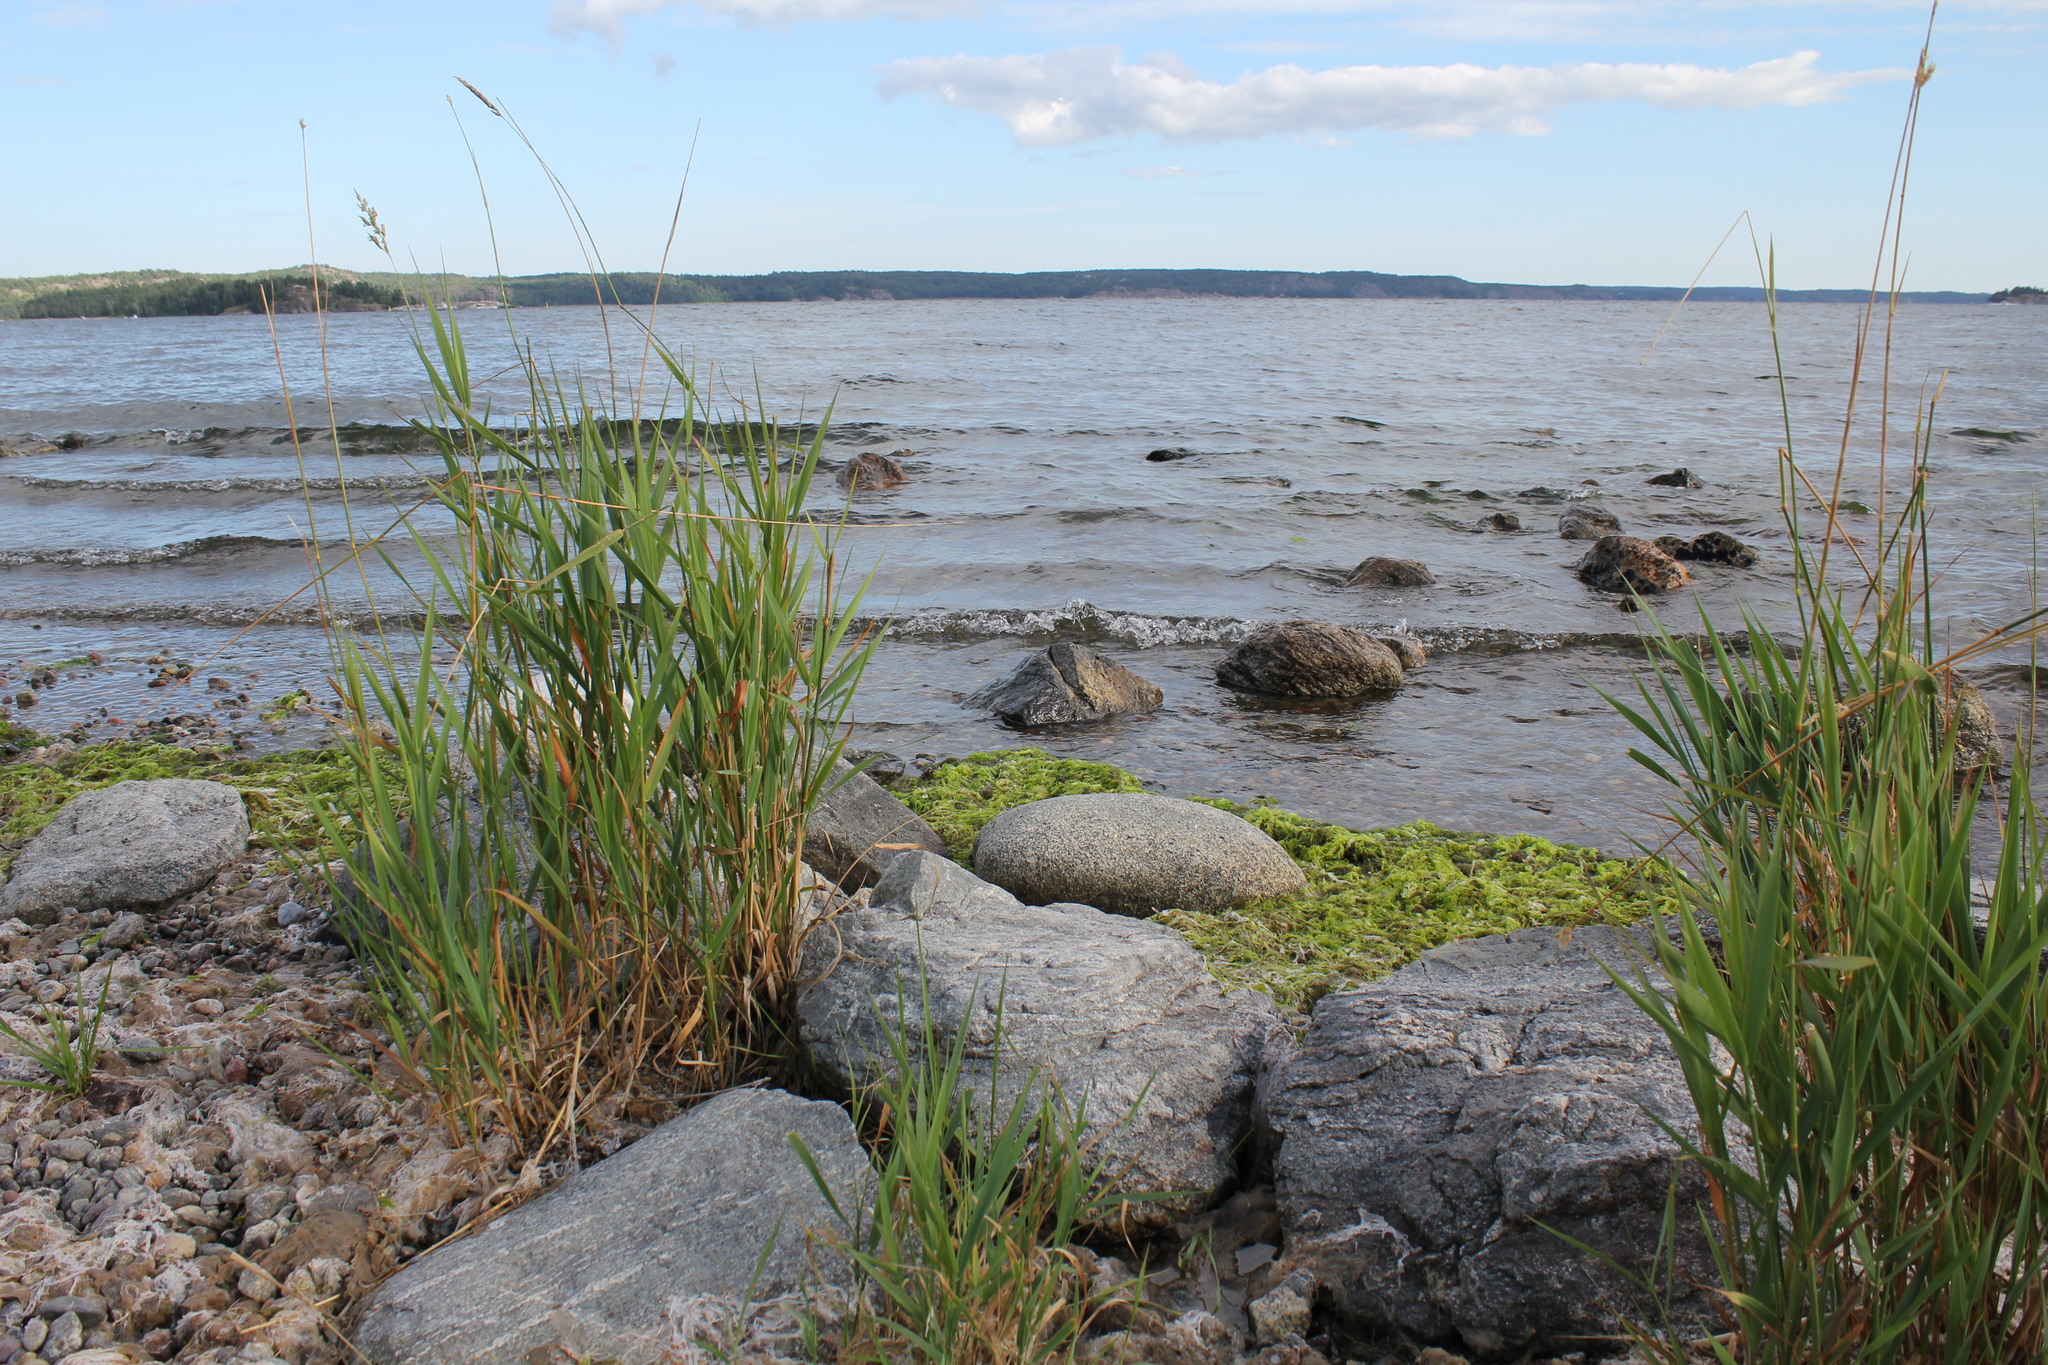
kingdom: Plantae
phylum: Tracheophyta
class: Liliopsida
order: Poales
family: Poaceae
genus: Phalaris
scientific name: Phalaris arundinacea
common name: Reed canary-grass
